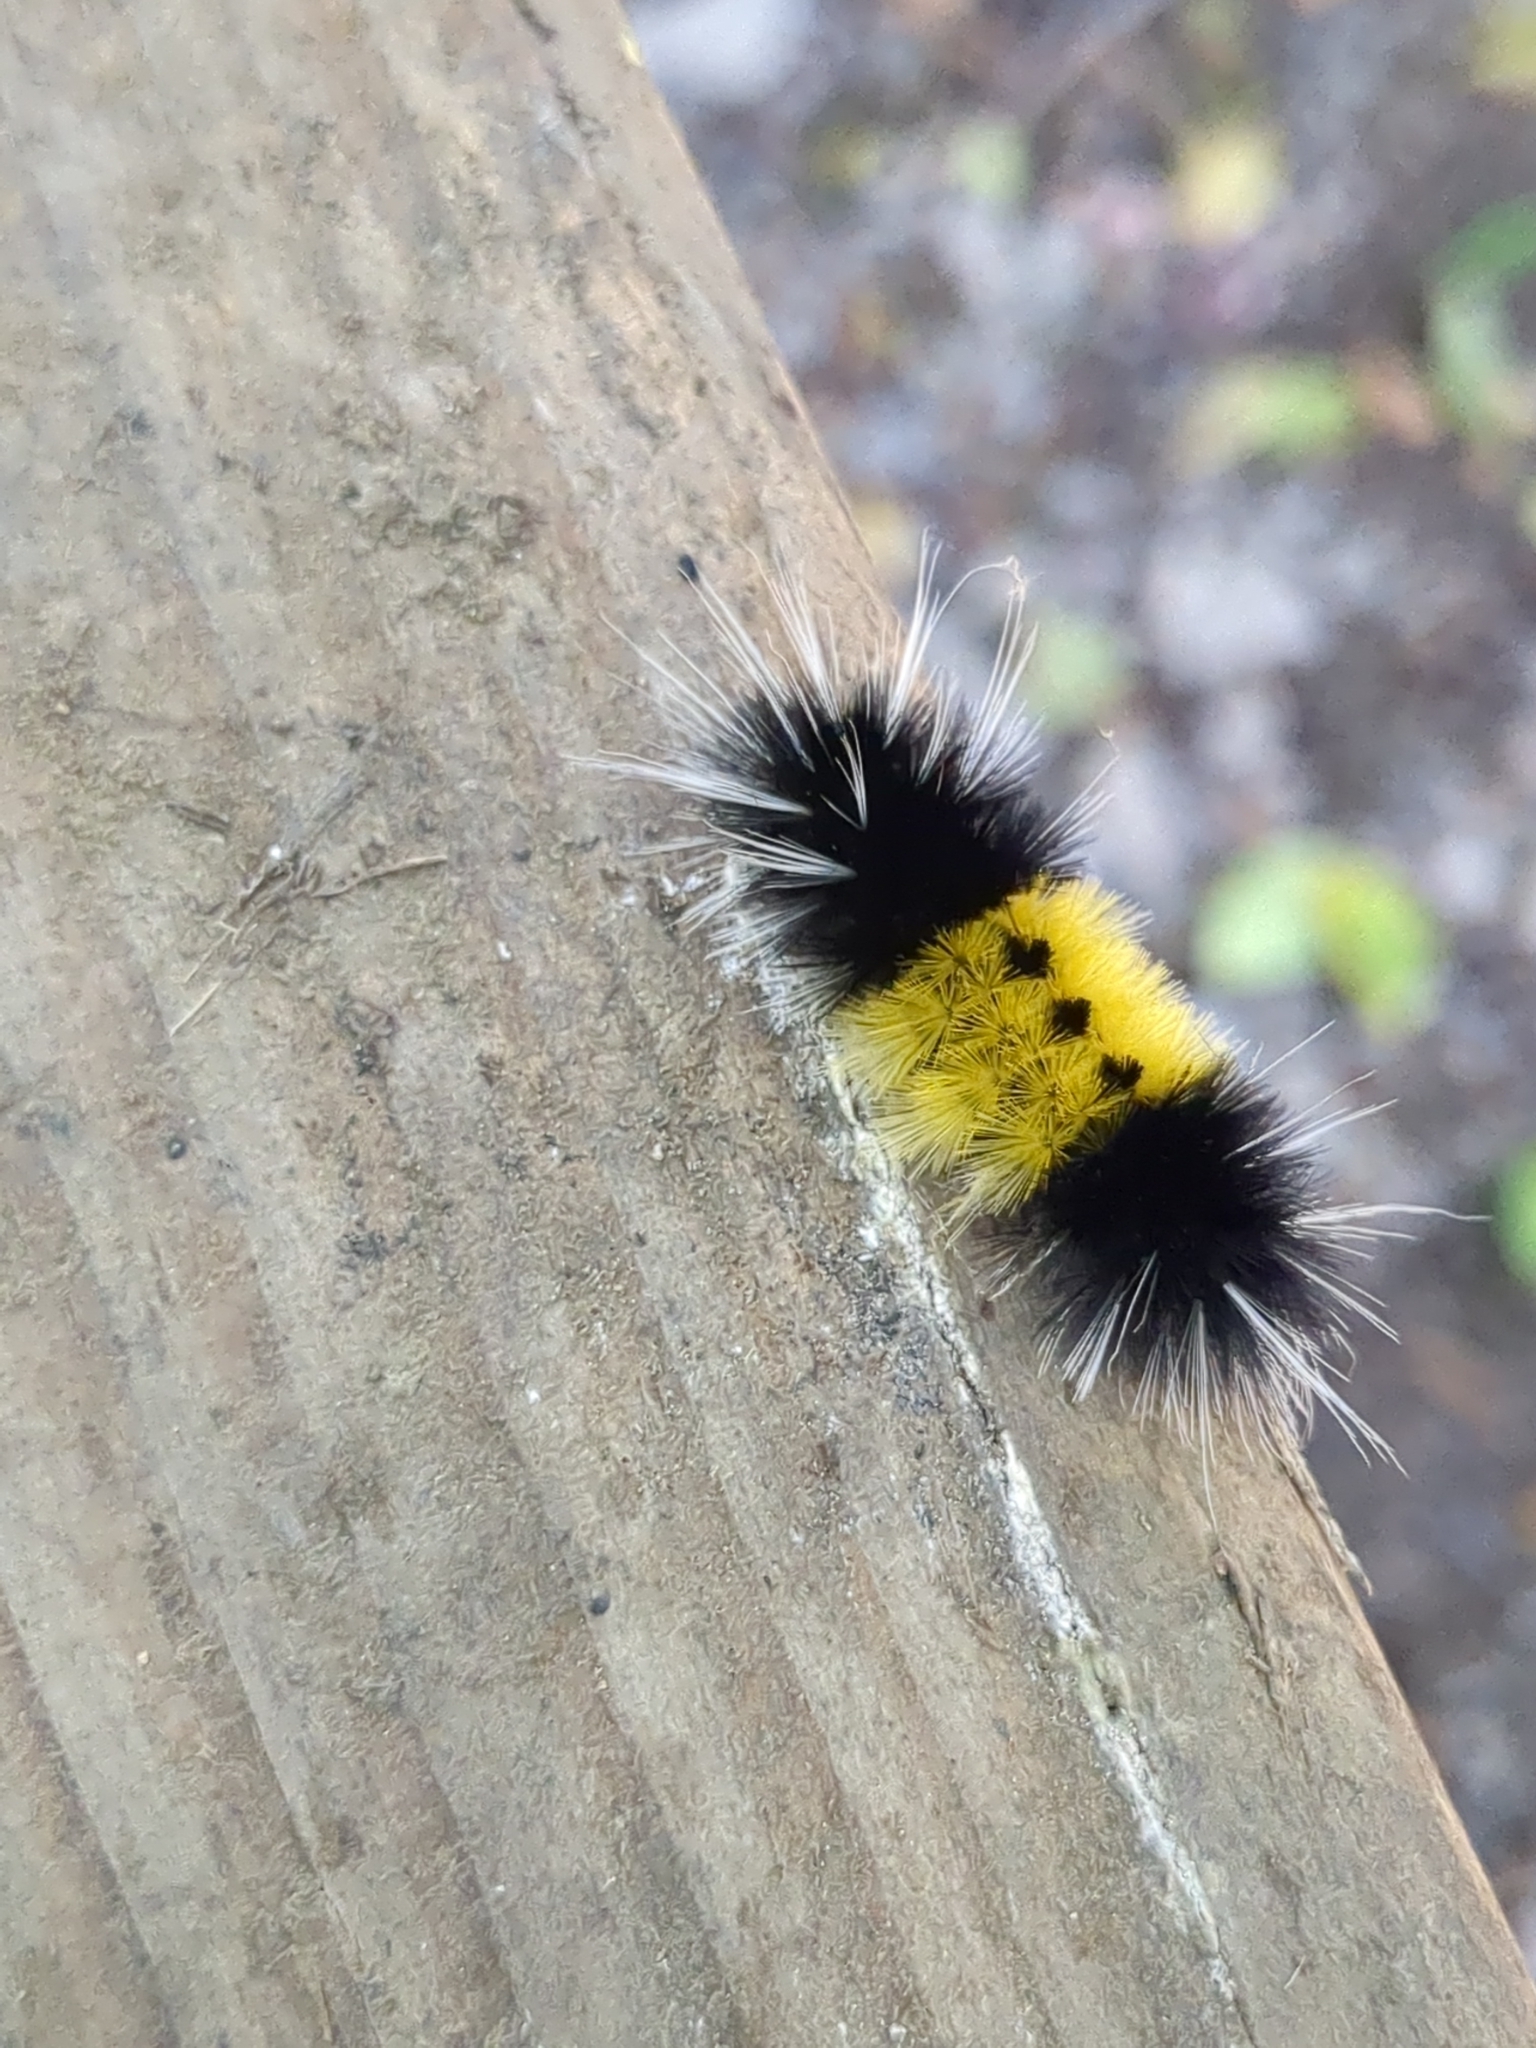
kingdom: Animalia
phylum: Arthropoda
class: Insecta
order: Lepidoptera
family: Erebidae
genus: Lophocampa
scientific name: Lophocampa maculata
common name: Spotted tussock moth
